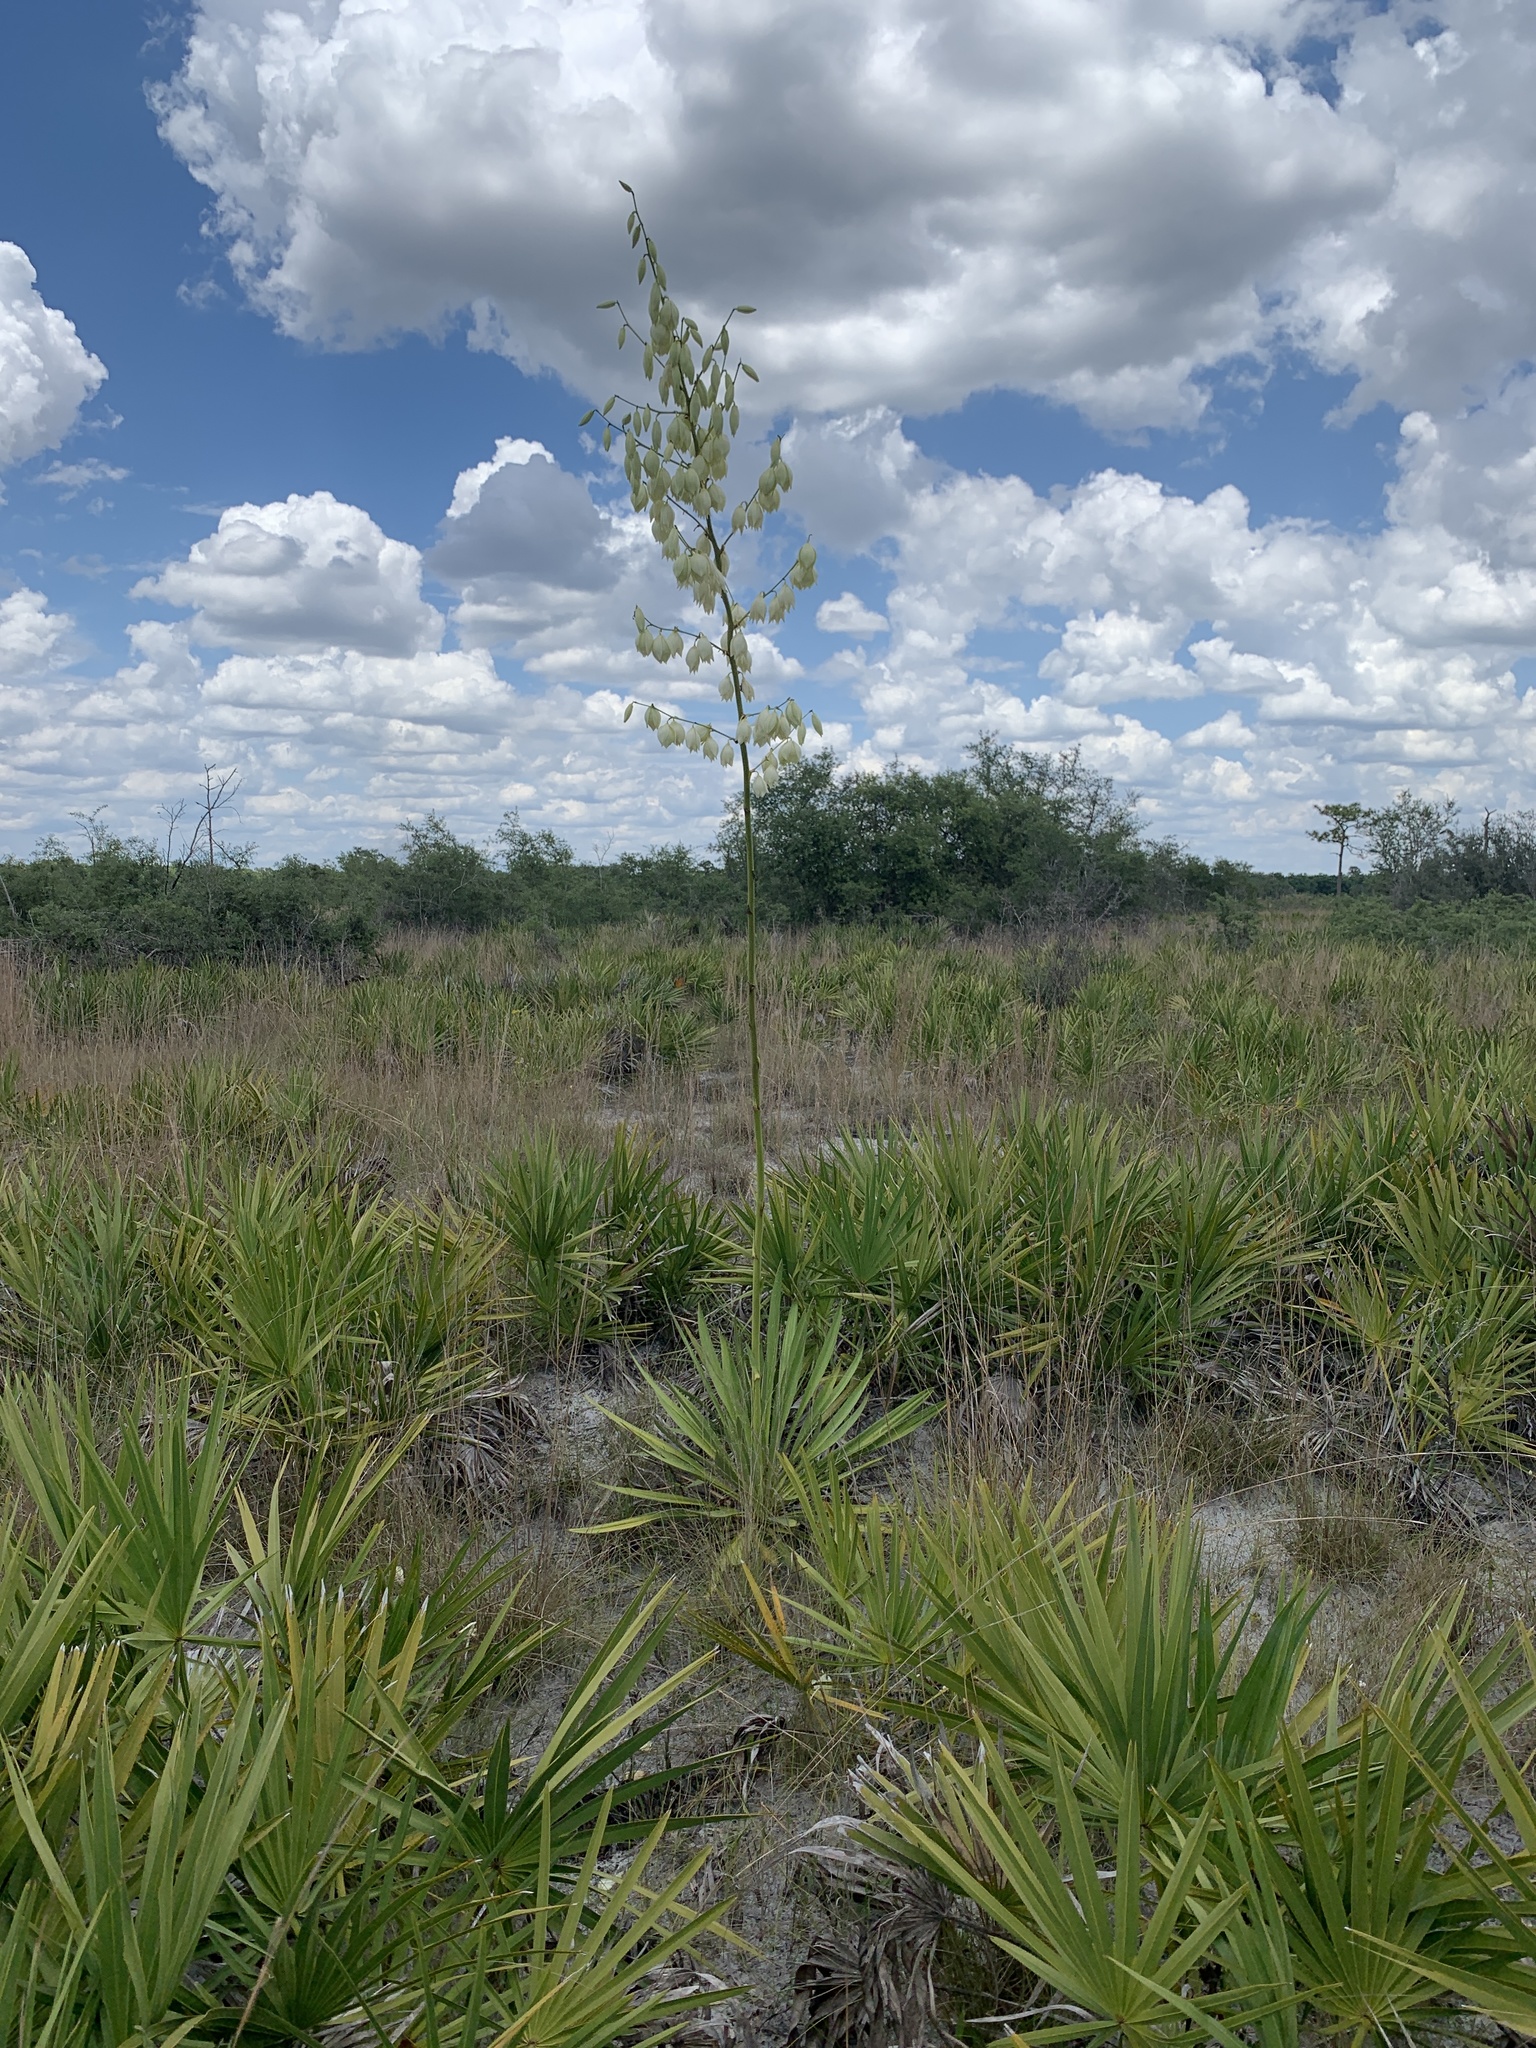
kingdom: Plantae
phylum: Tracheophyta
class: Liliopsida
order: Asparagales
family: Asparagaceae
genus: Yucca
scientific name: Yucca filamentosa
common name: Adam's-needle
